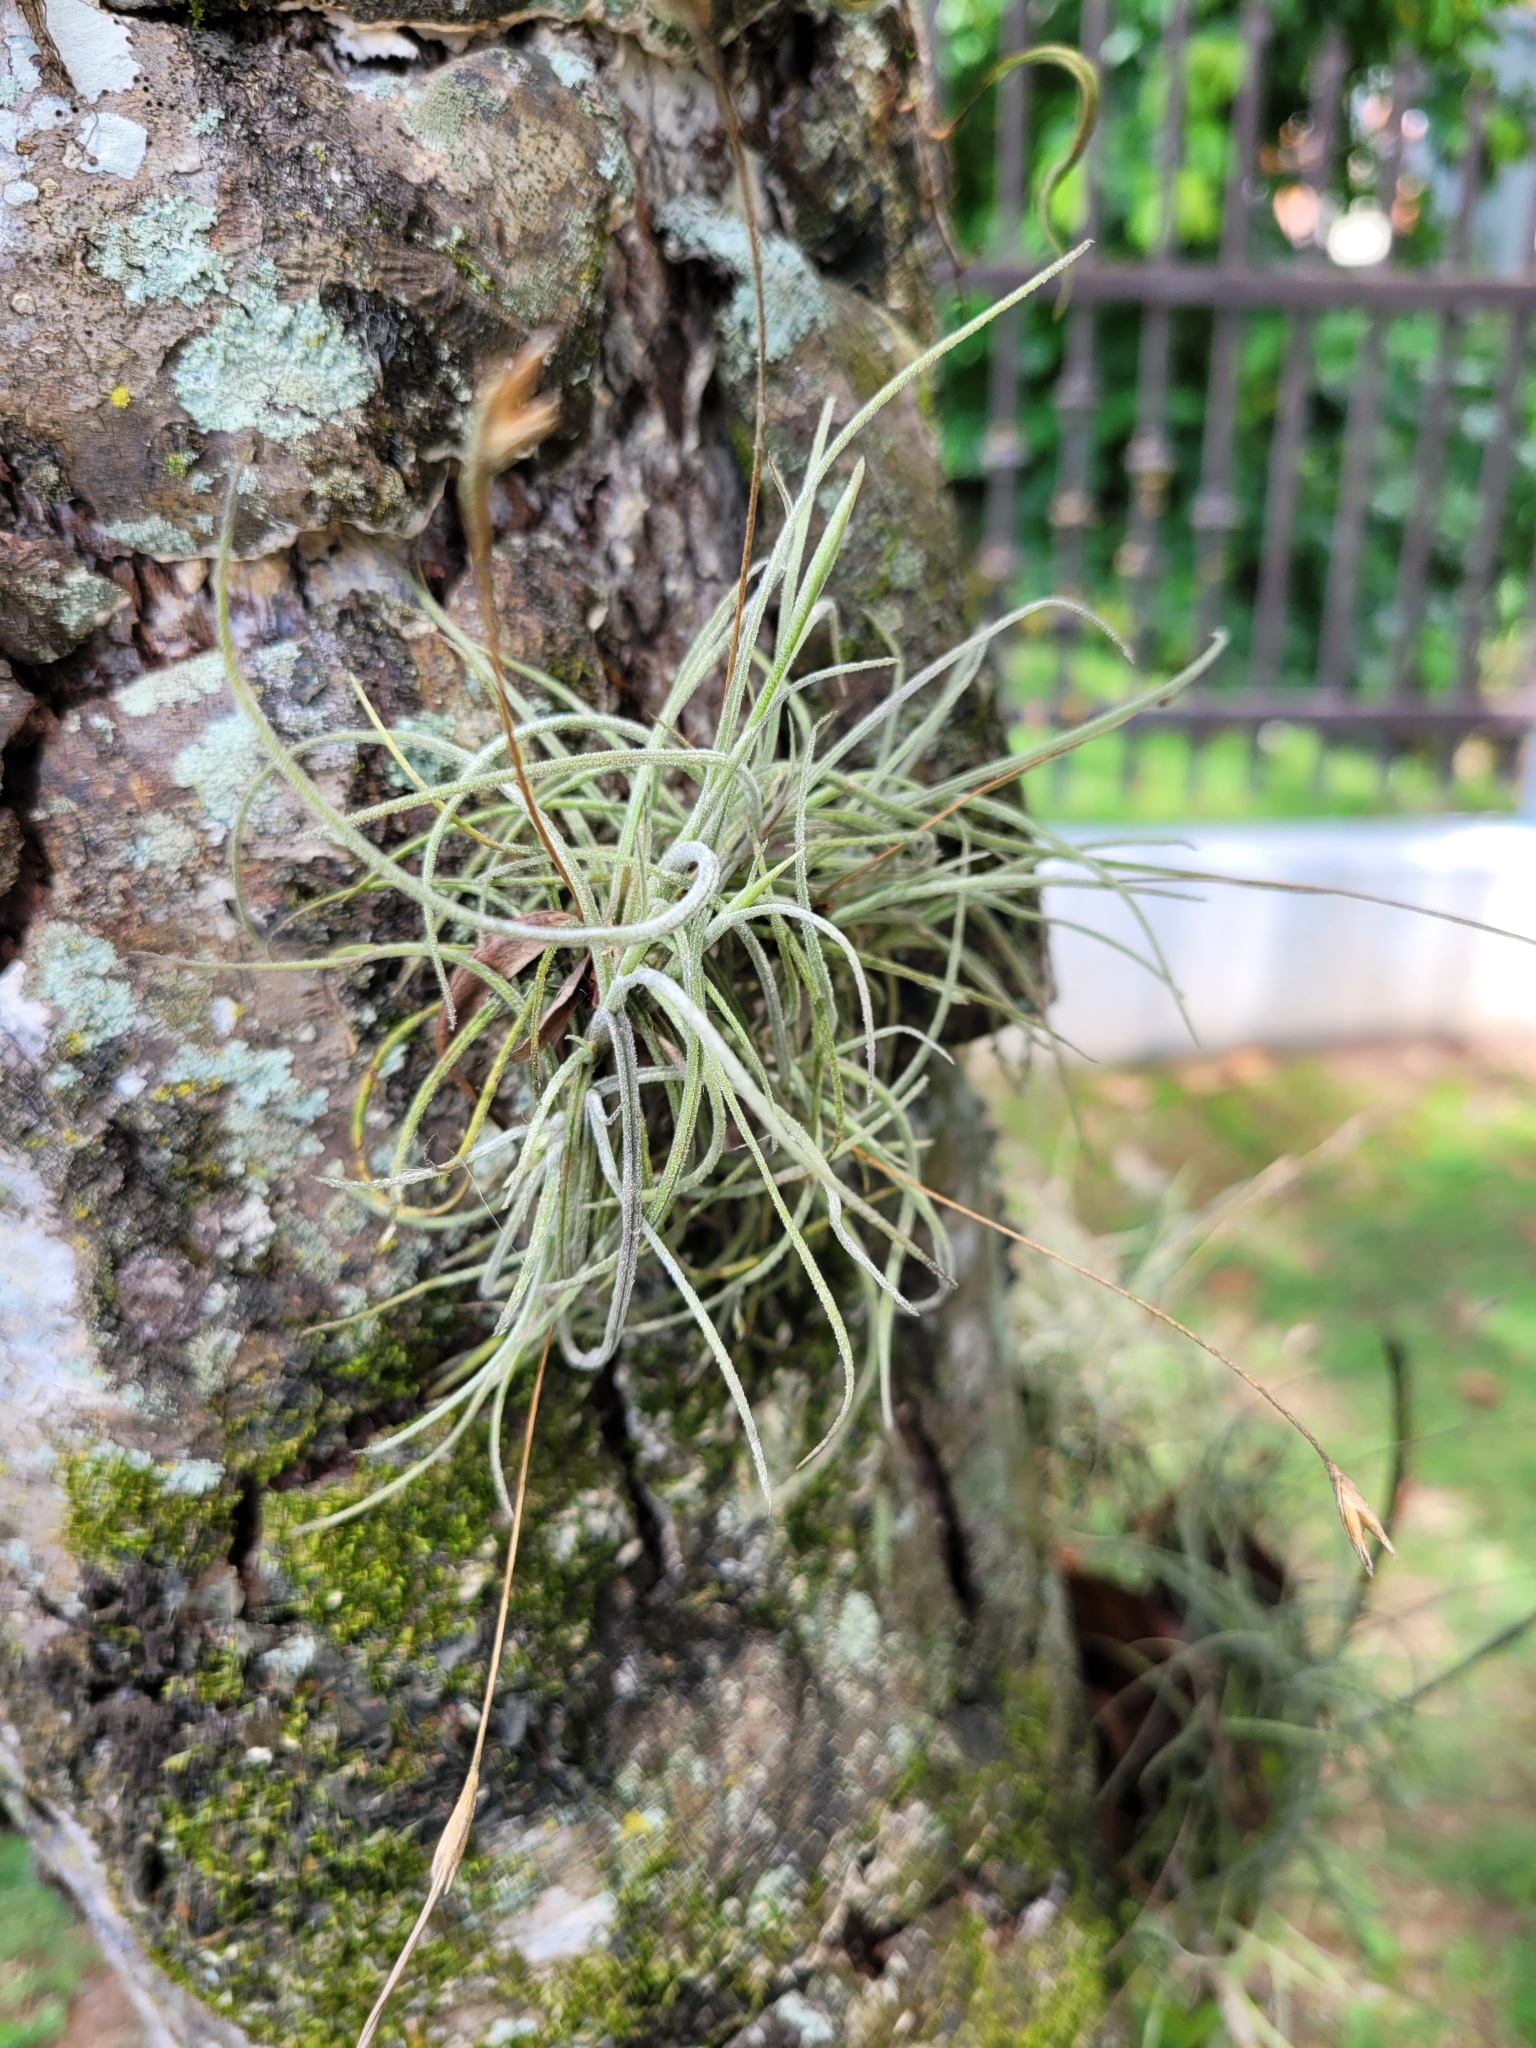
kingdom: Plantae
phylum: Tracheophyta
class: Liliopsida
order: Poales
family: Bromeliaceae
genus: Tillandsia
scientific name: Tillandsia recurvata
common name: Small ballmoss
